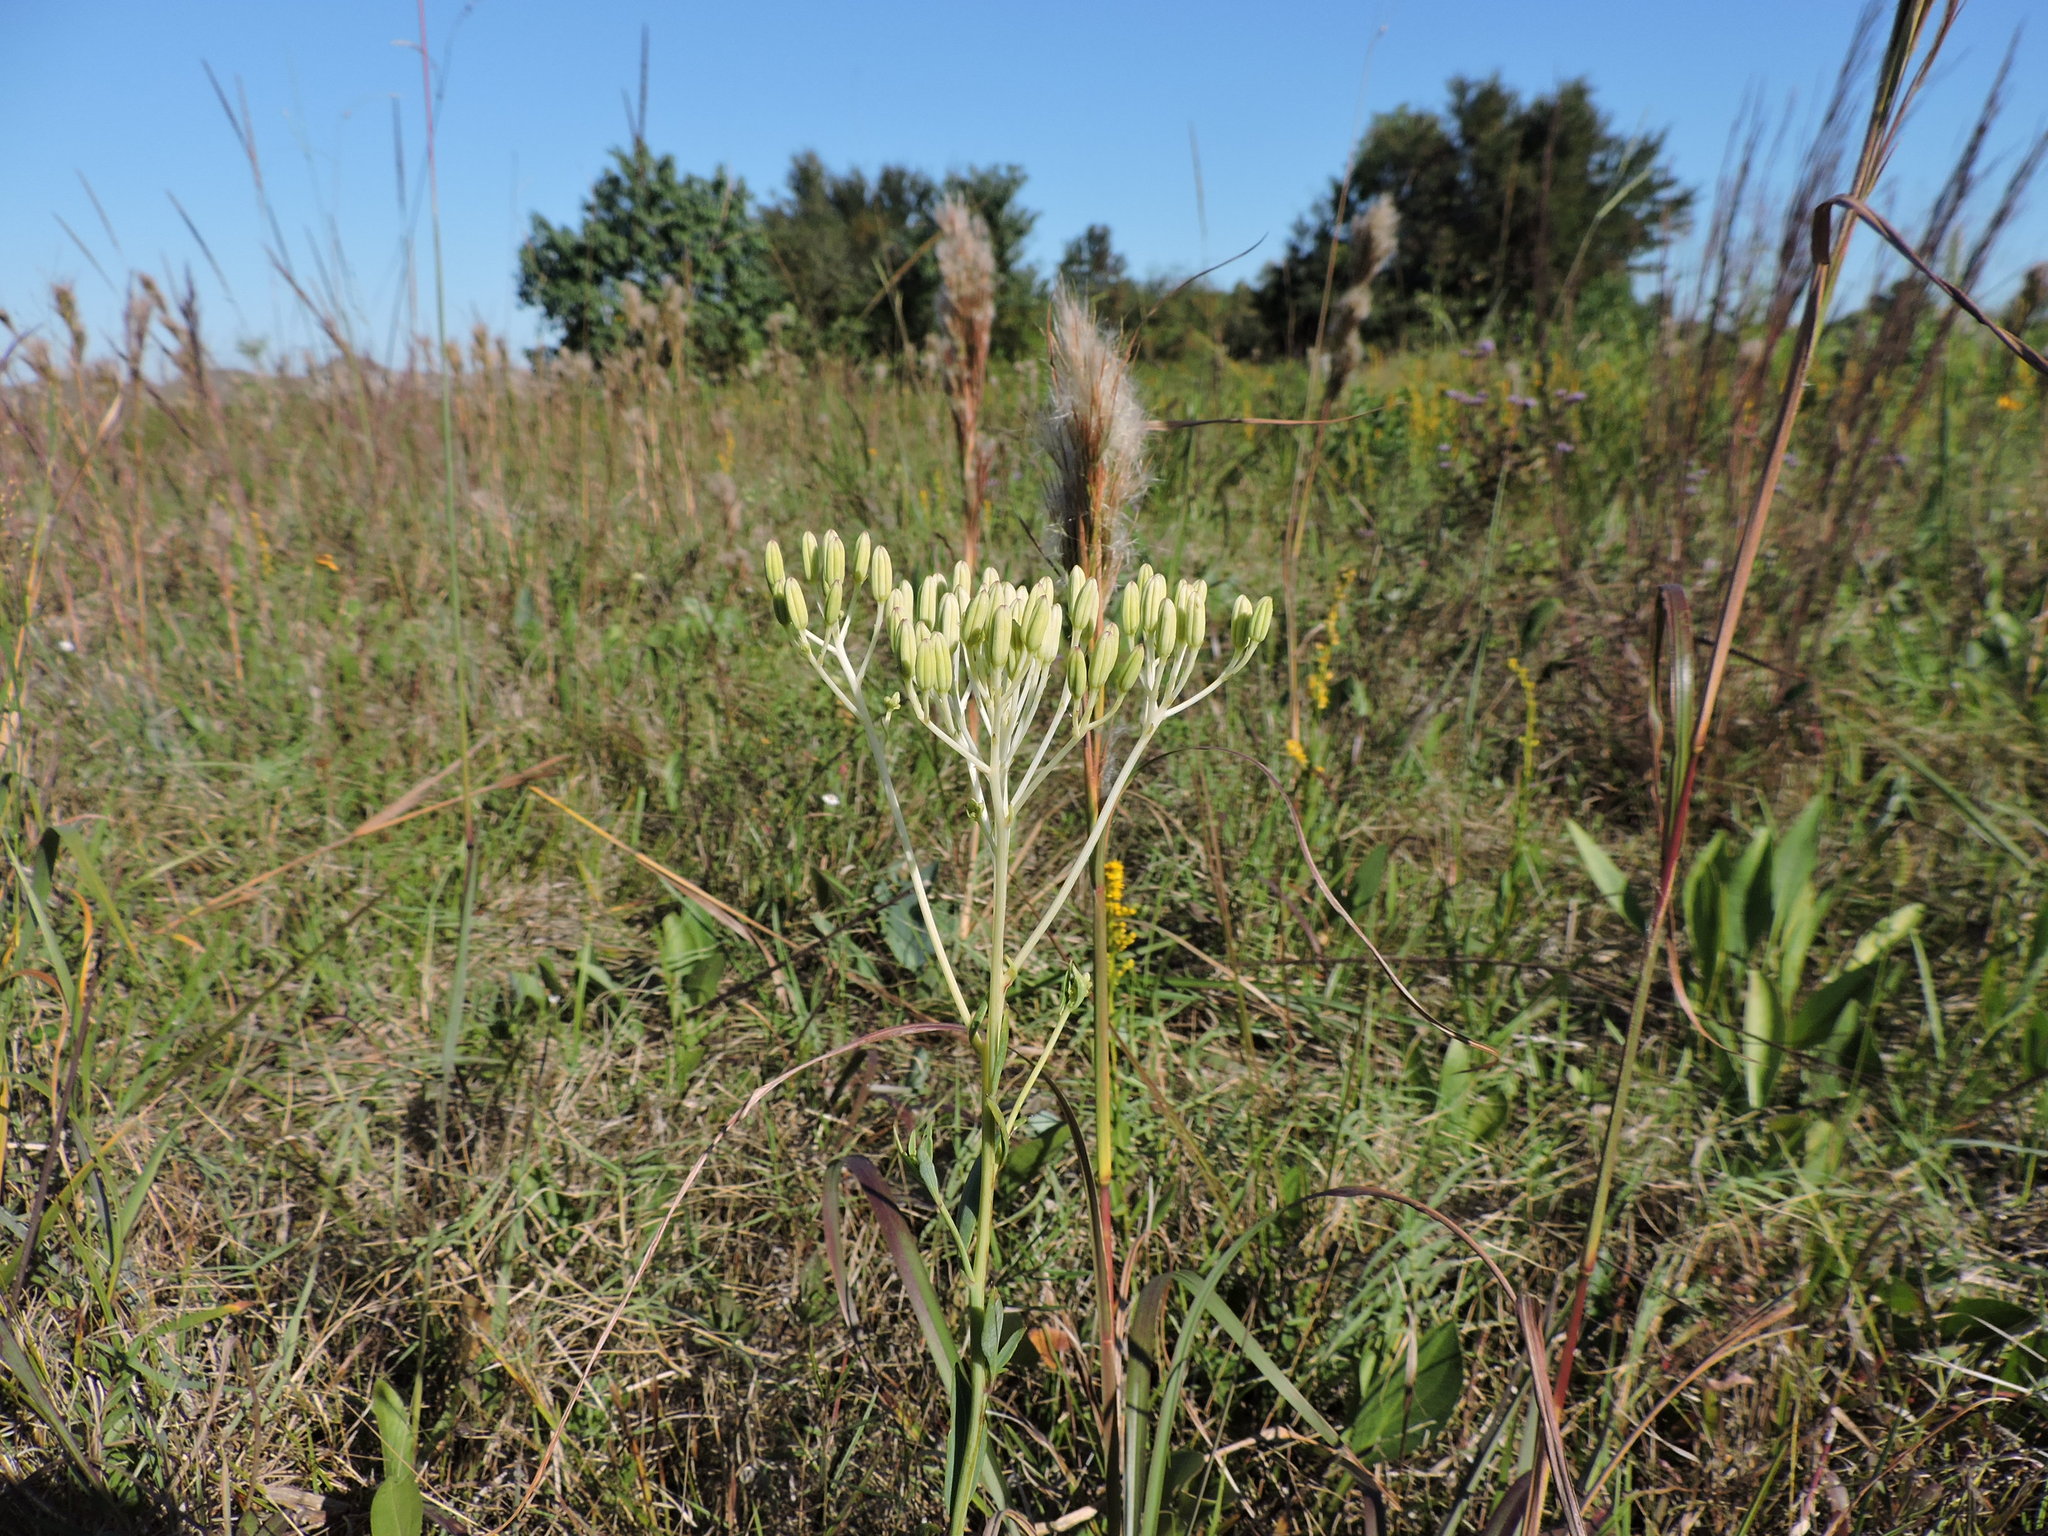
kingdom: Plantae
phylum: Tracheophyta
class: Magnoliopsida
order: Asterales
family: Asteraceae
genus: Arnoglossum
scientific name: Arnoglossum ovatum
